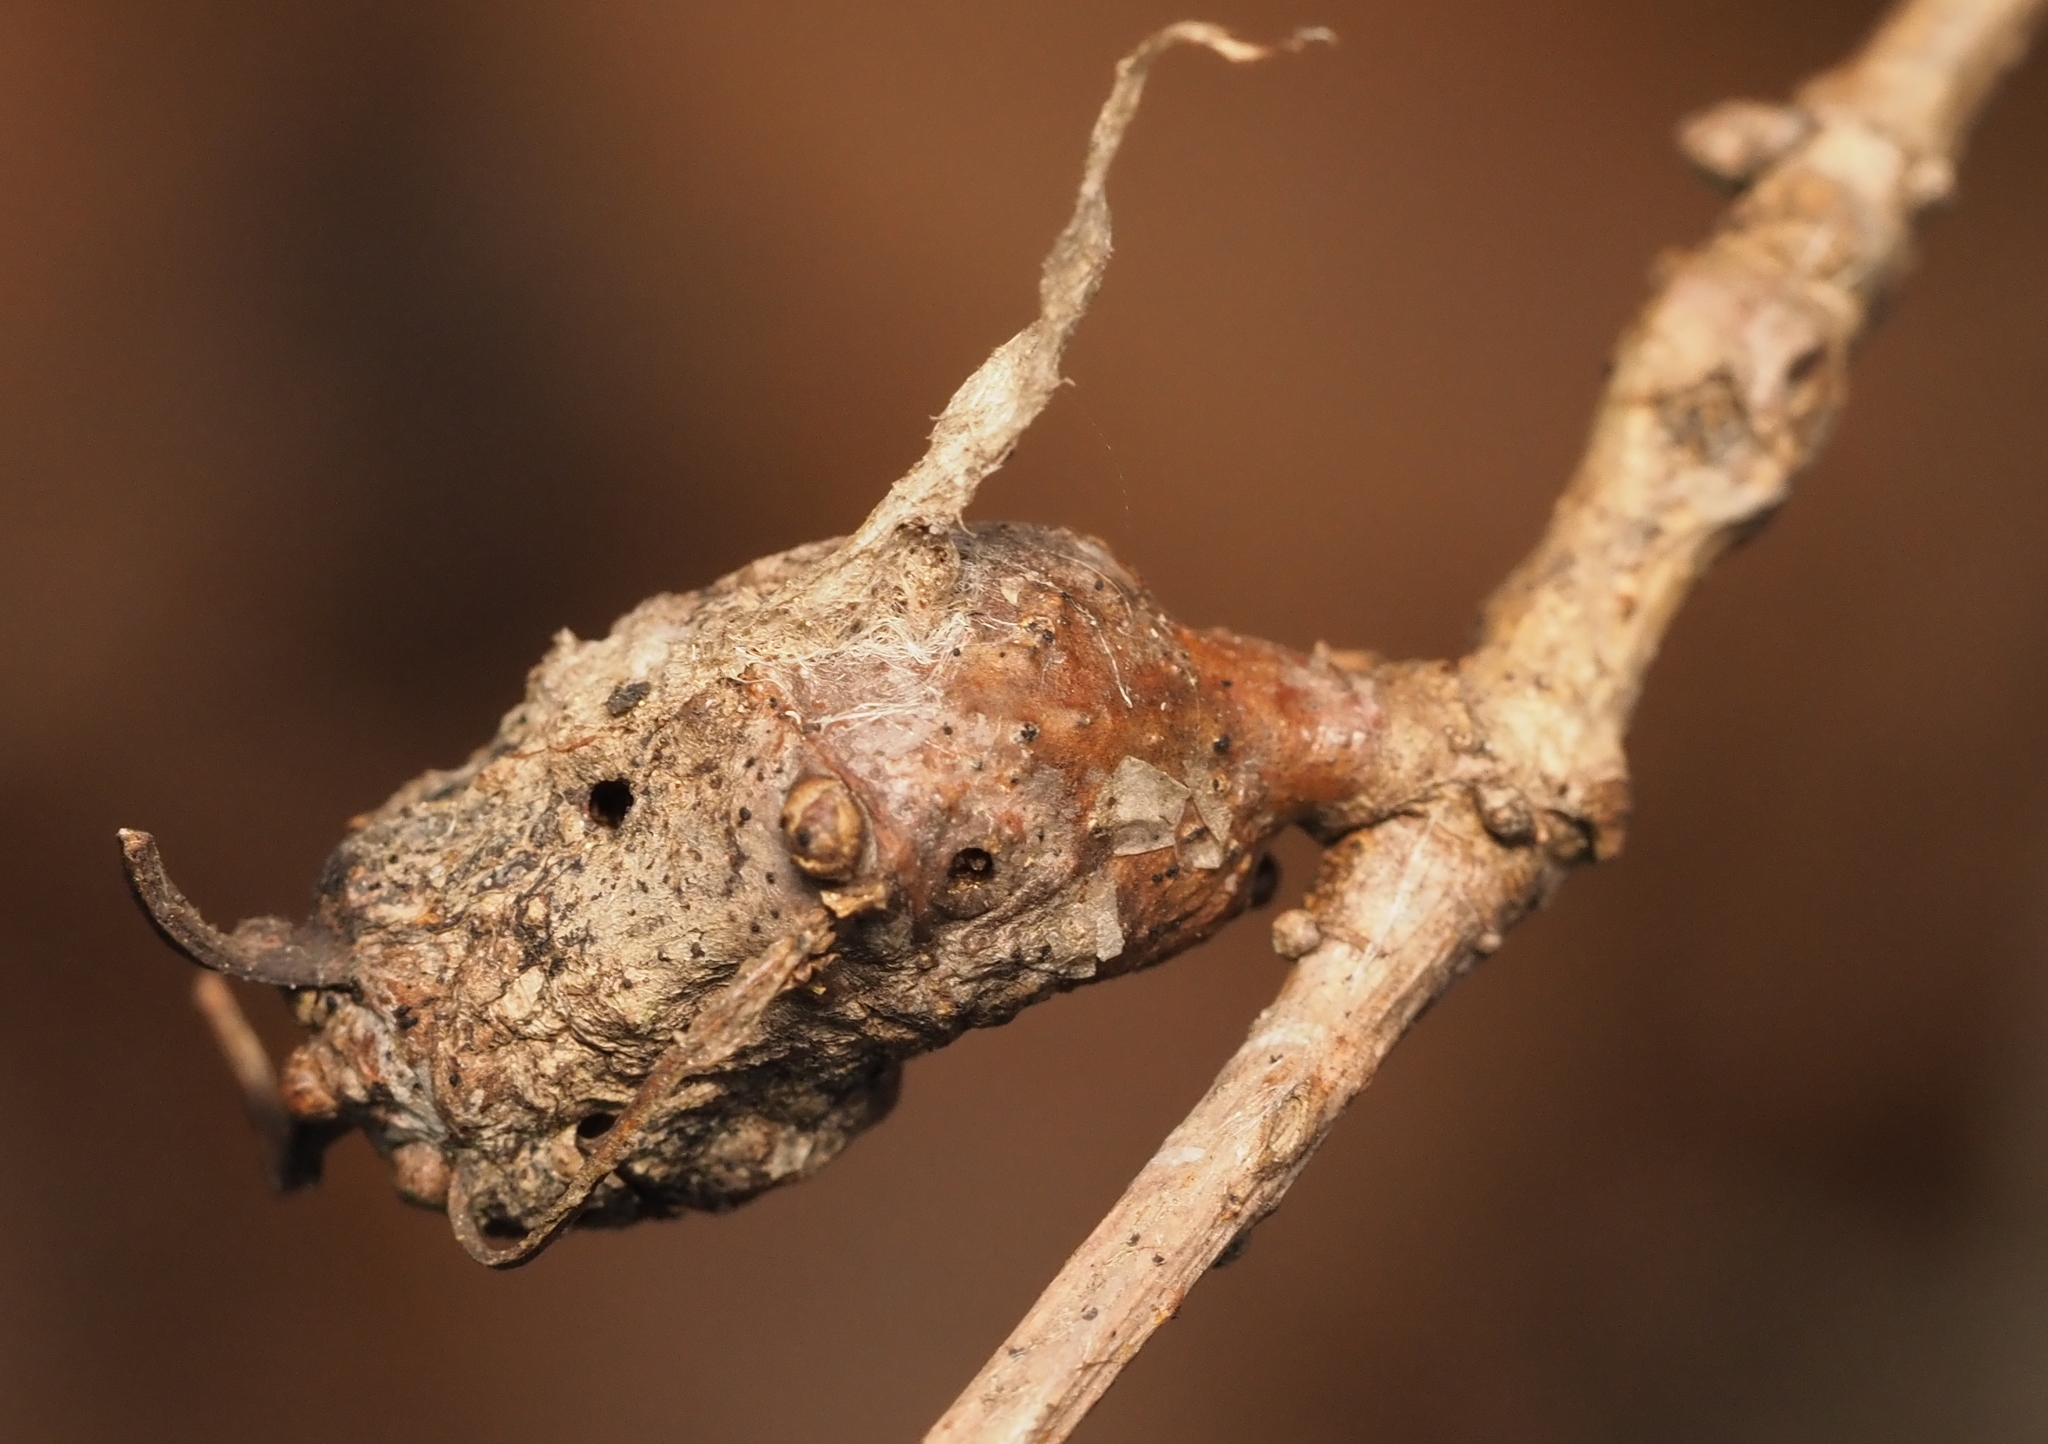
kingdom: Animalia
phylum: Arthropoda
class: Insecta
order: Hymenoptera
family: Cynipidae
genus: Neuroterus
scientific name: Neuroterus quercusbaccarum
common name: Common spangle gall
